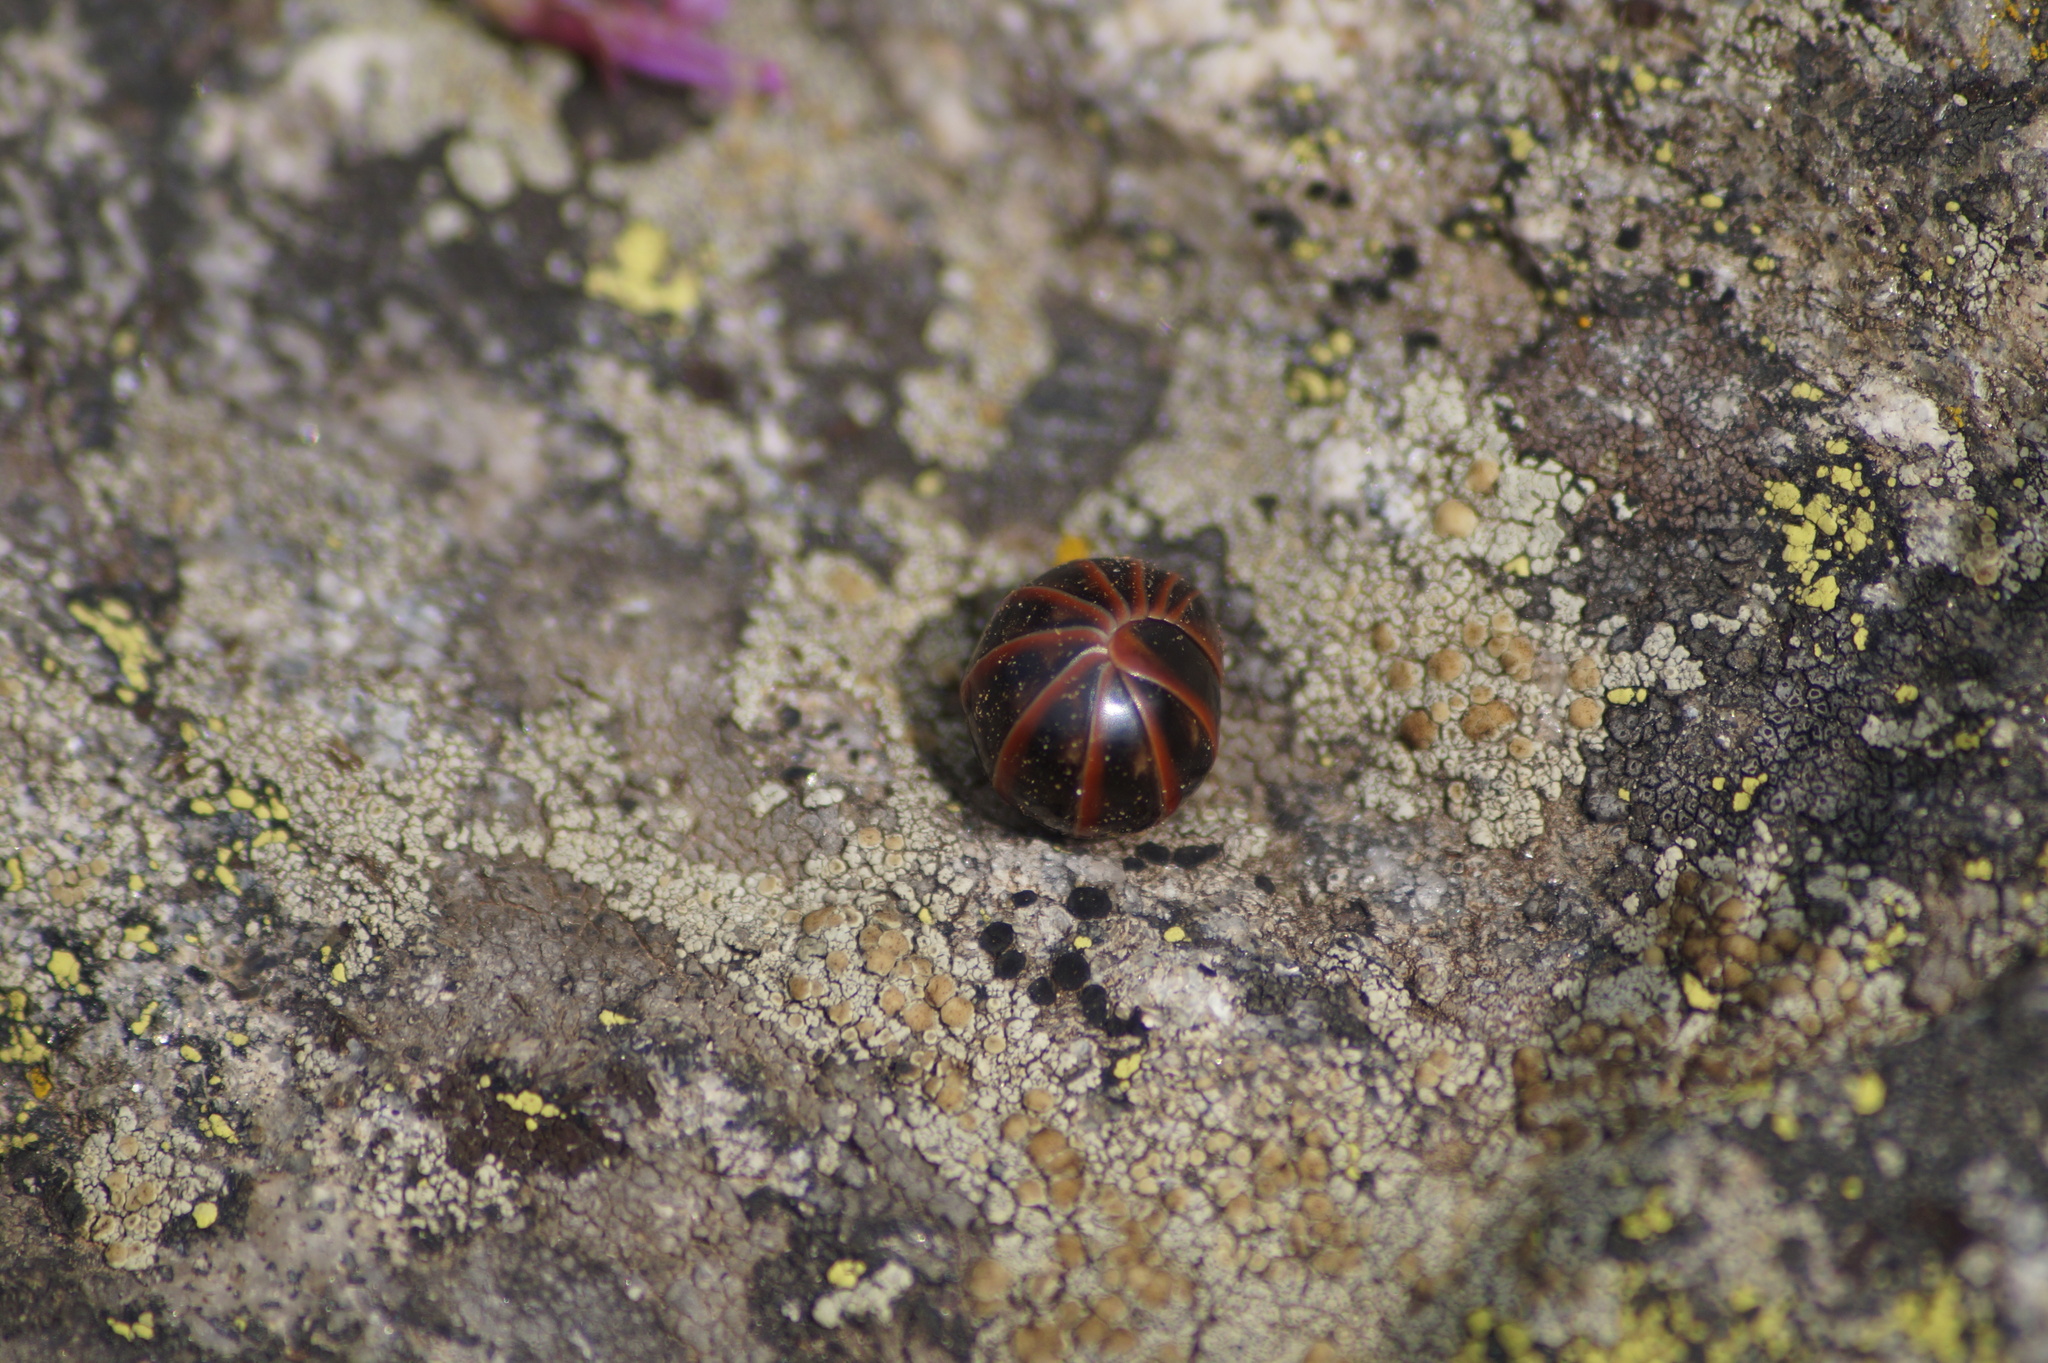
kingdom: Animalia
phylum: Arthropoda
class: Diplopoda
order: Glomerida
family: Glomeridae
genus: Glomeris
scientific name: Glomeris transalpina
